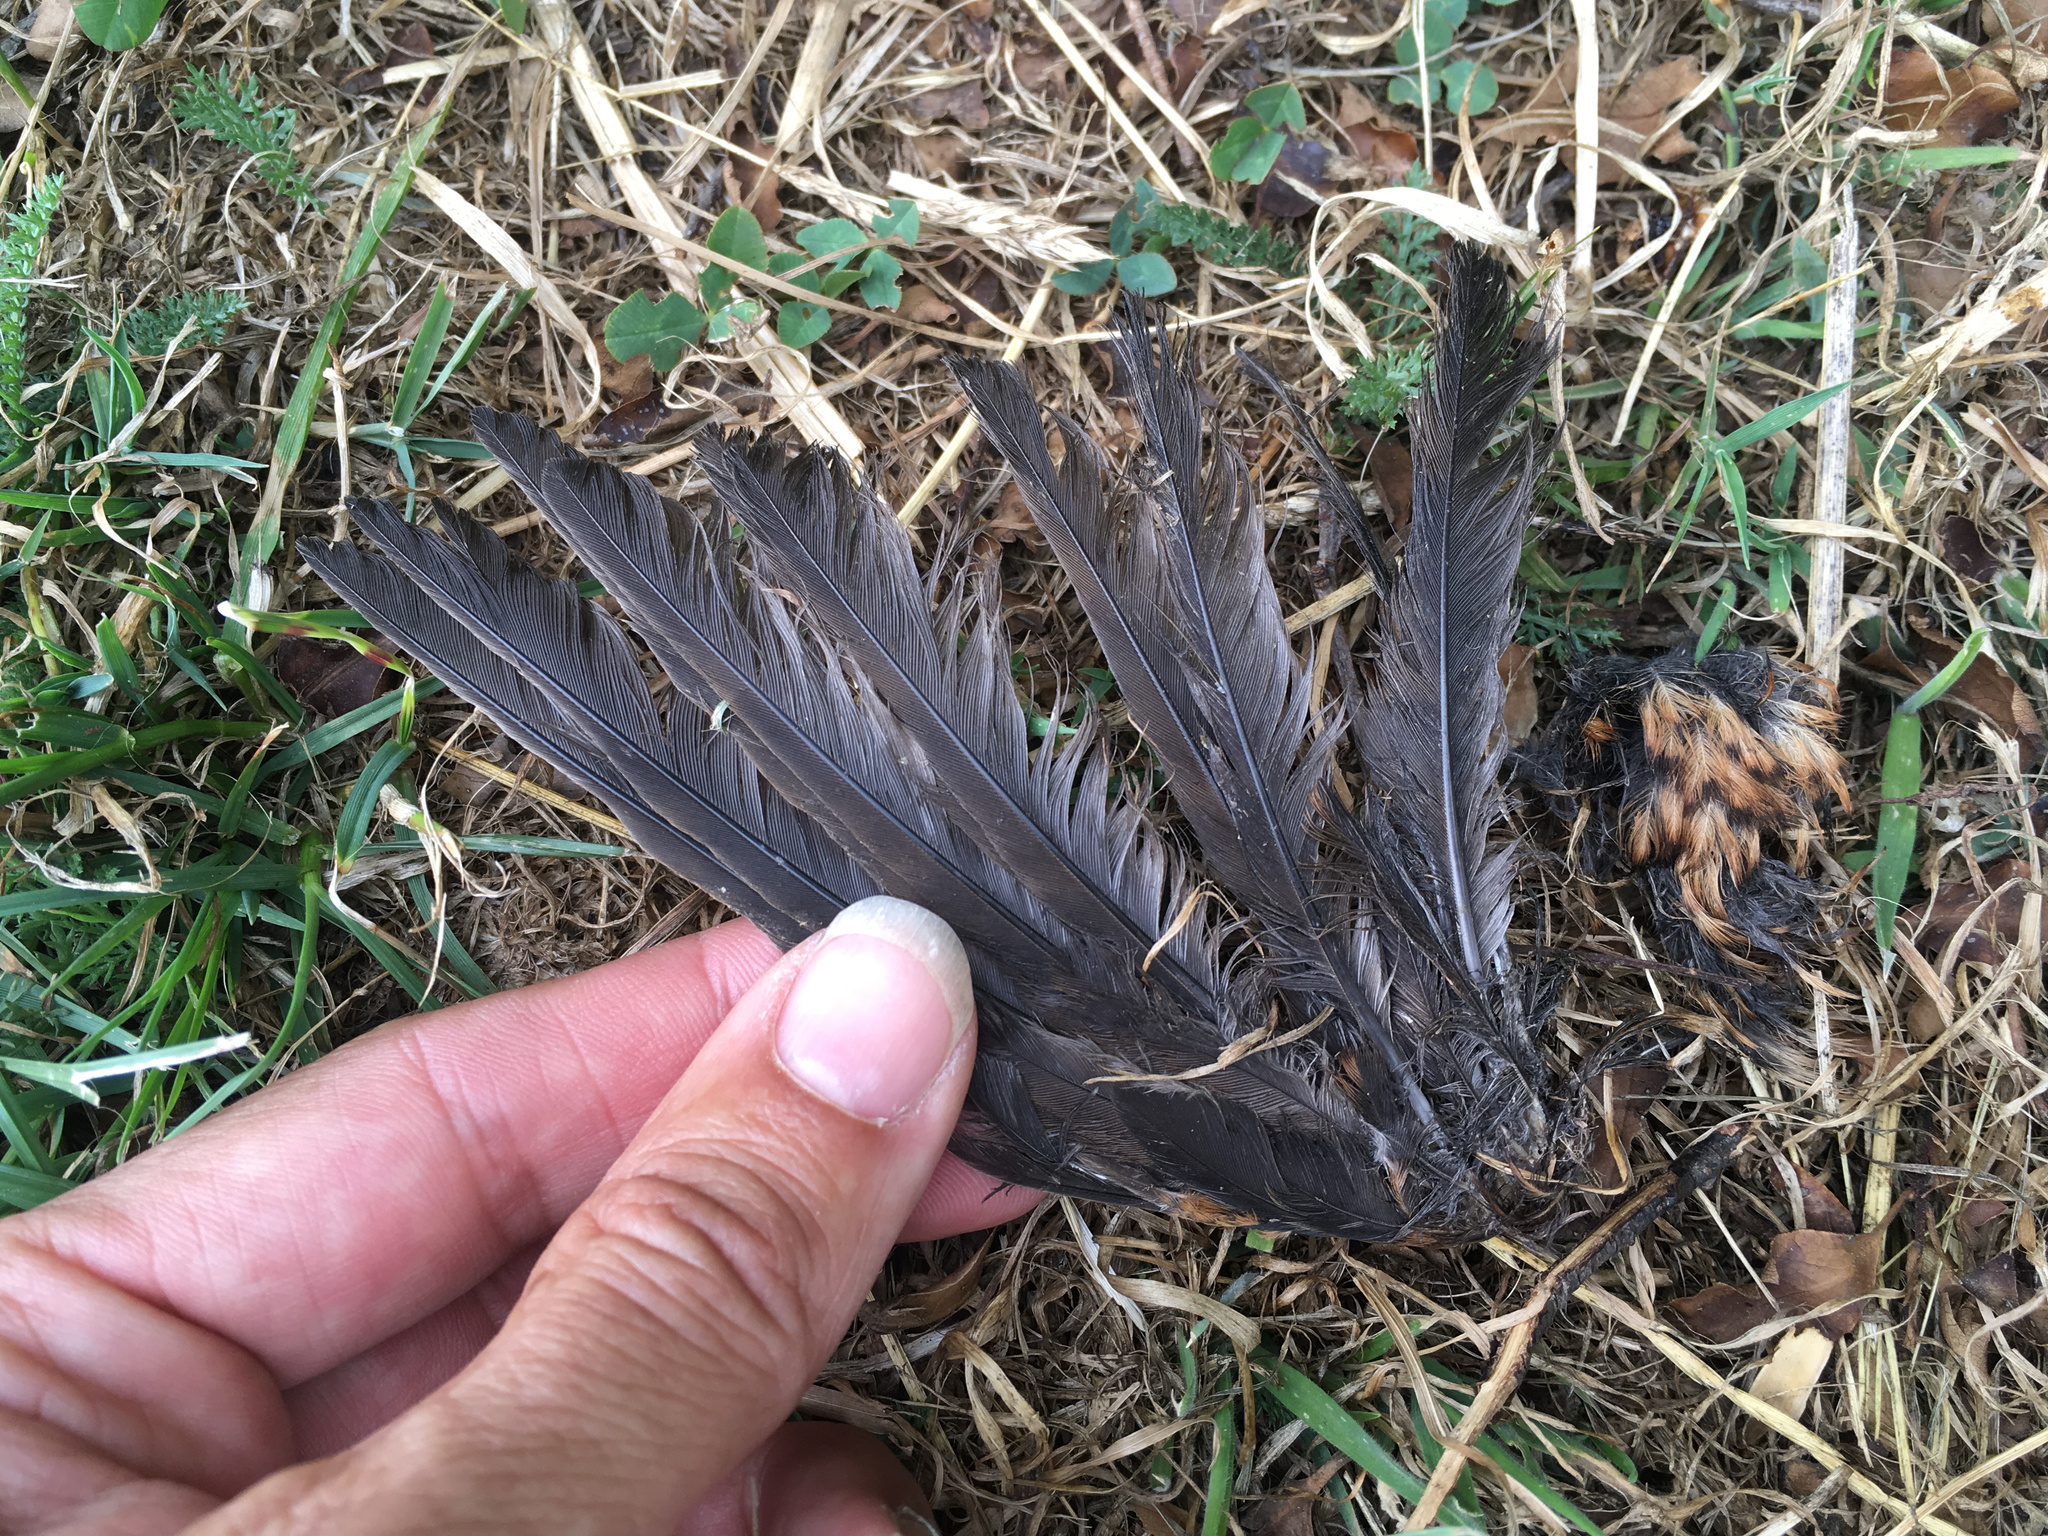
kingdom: Animalia
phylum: Chordata
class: Aves
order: Passeriformes
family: Turdidae
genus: Turdus
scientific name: Turdus merula
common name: Common blackbird
